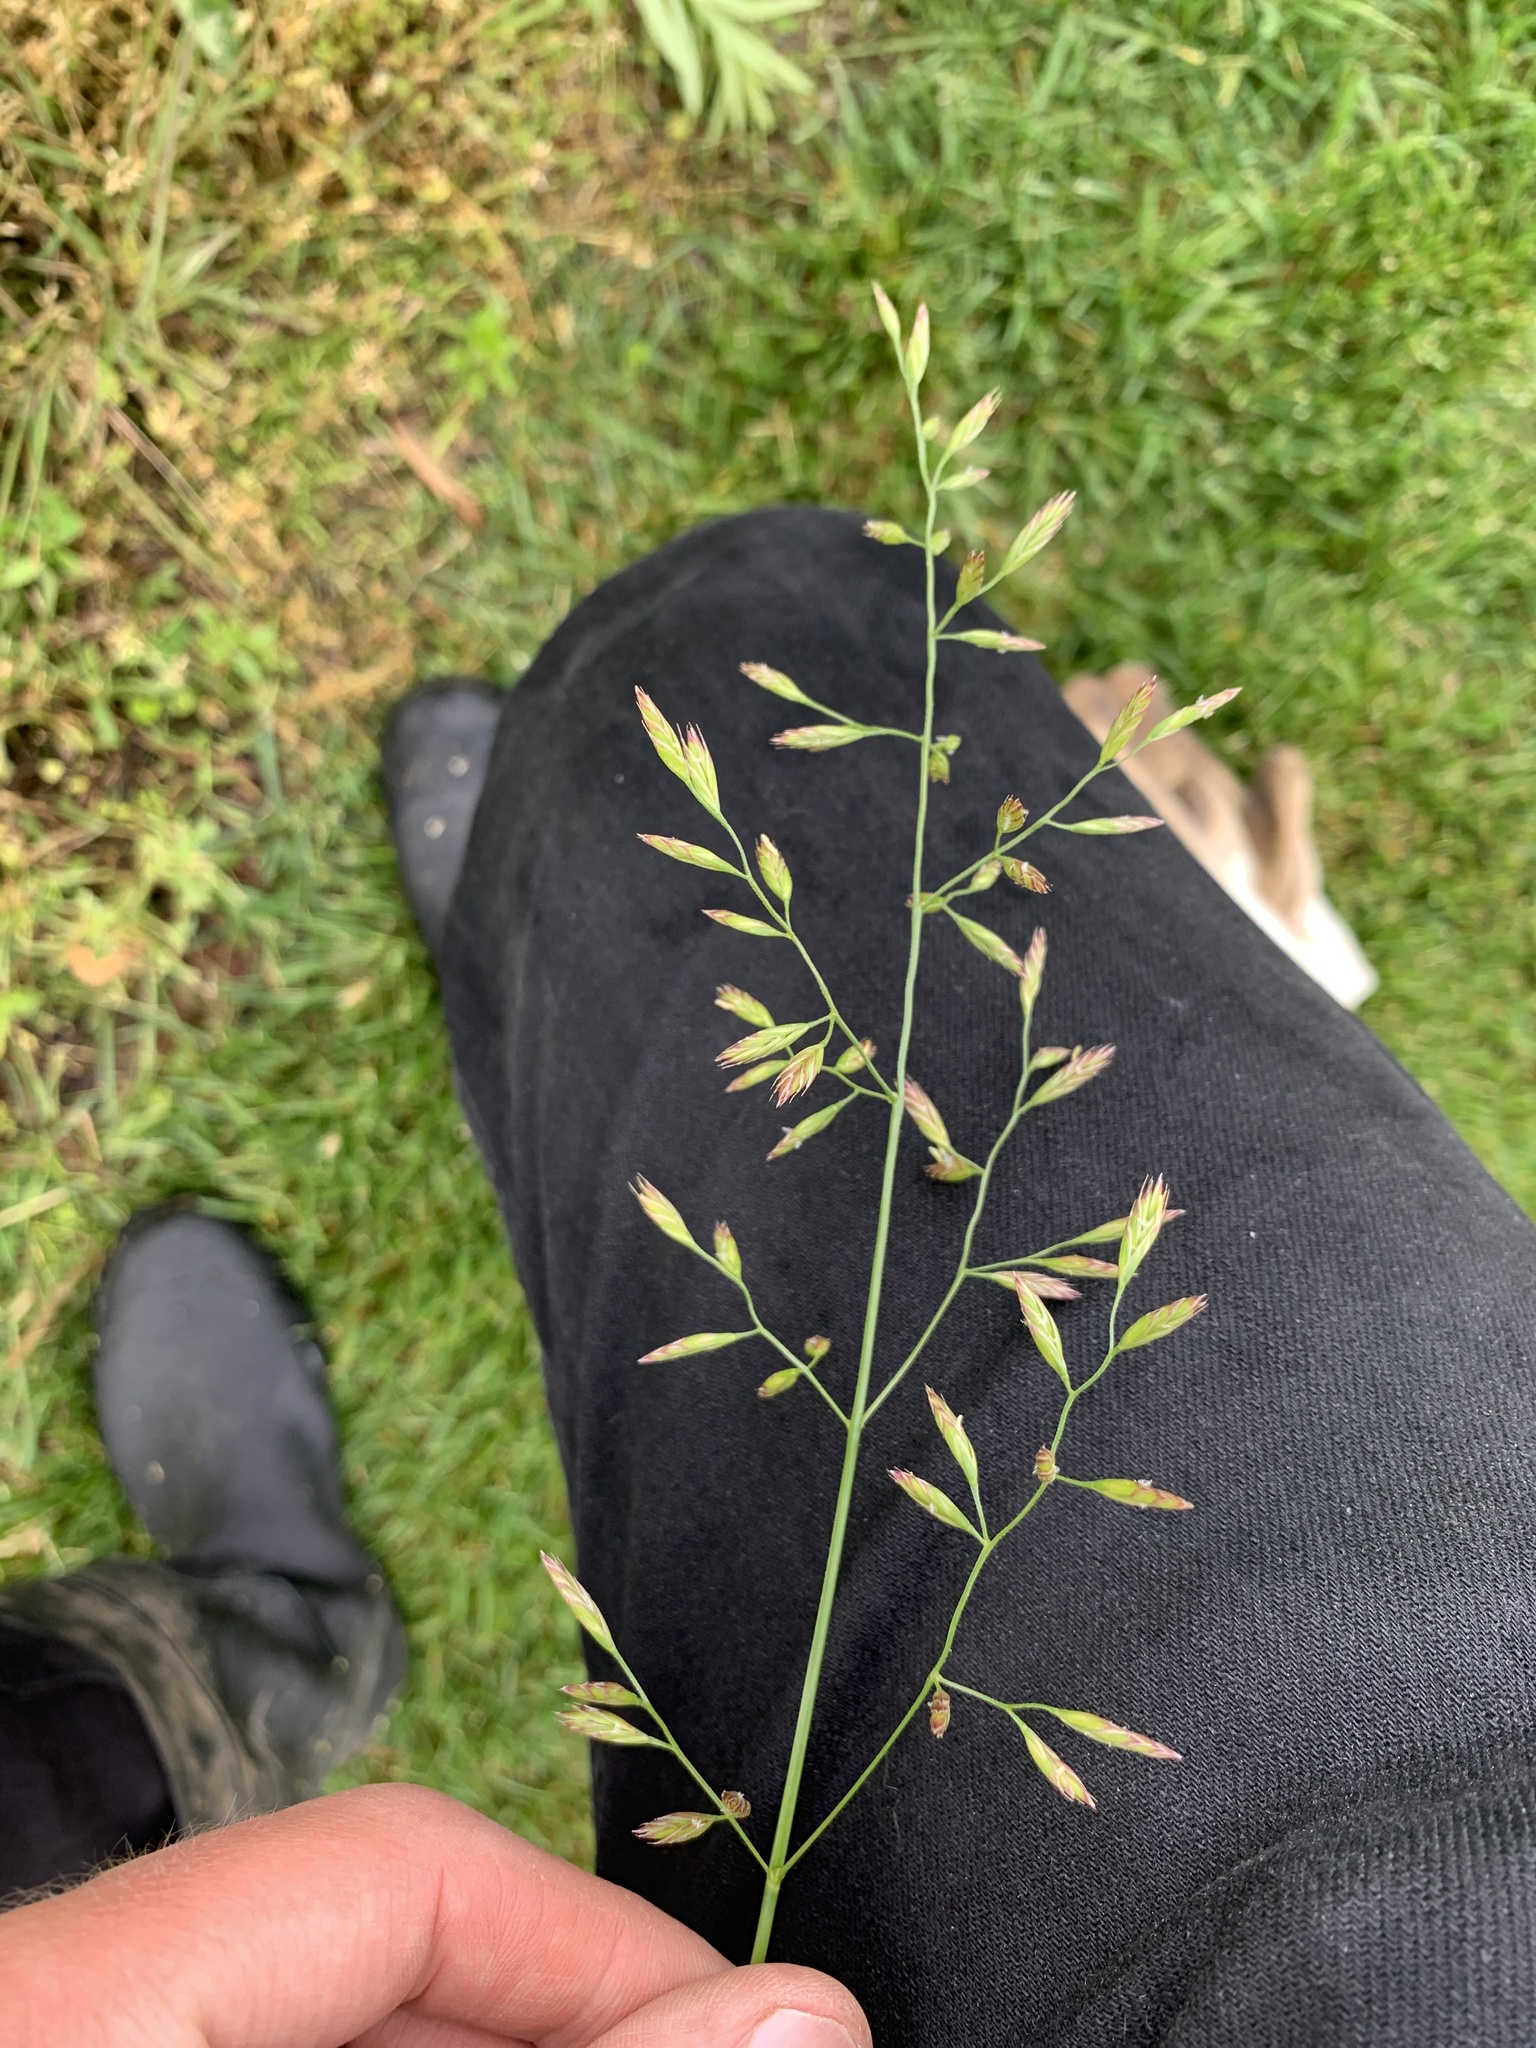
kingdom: Plantae
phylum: Tracheophyta
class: Liliopsida
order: Poales
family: Poaceae
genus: Lolium
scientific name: Lolium arundinaceum
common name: Reed fescue
